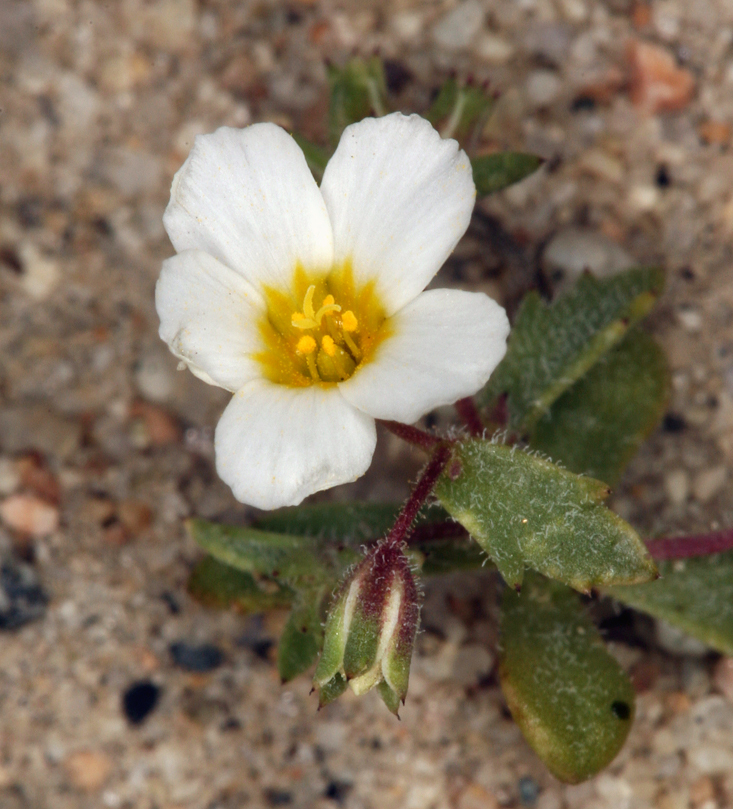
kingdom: Plantae
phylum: Tracheophyta
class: Magnoliopsida
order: Ericales
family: Polemoniaceae
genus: Linanthus
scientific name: Linanthus inyoensis
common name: Inyo gilia
